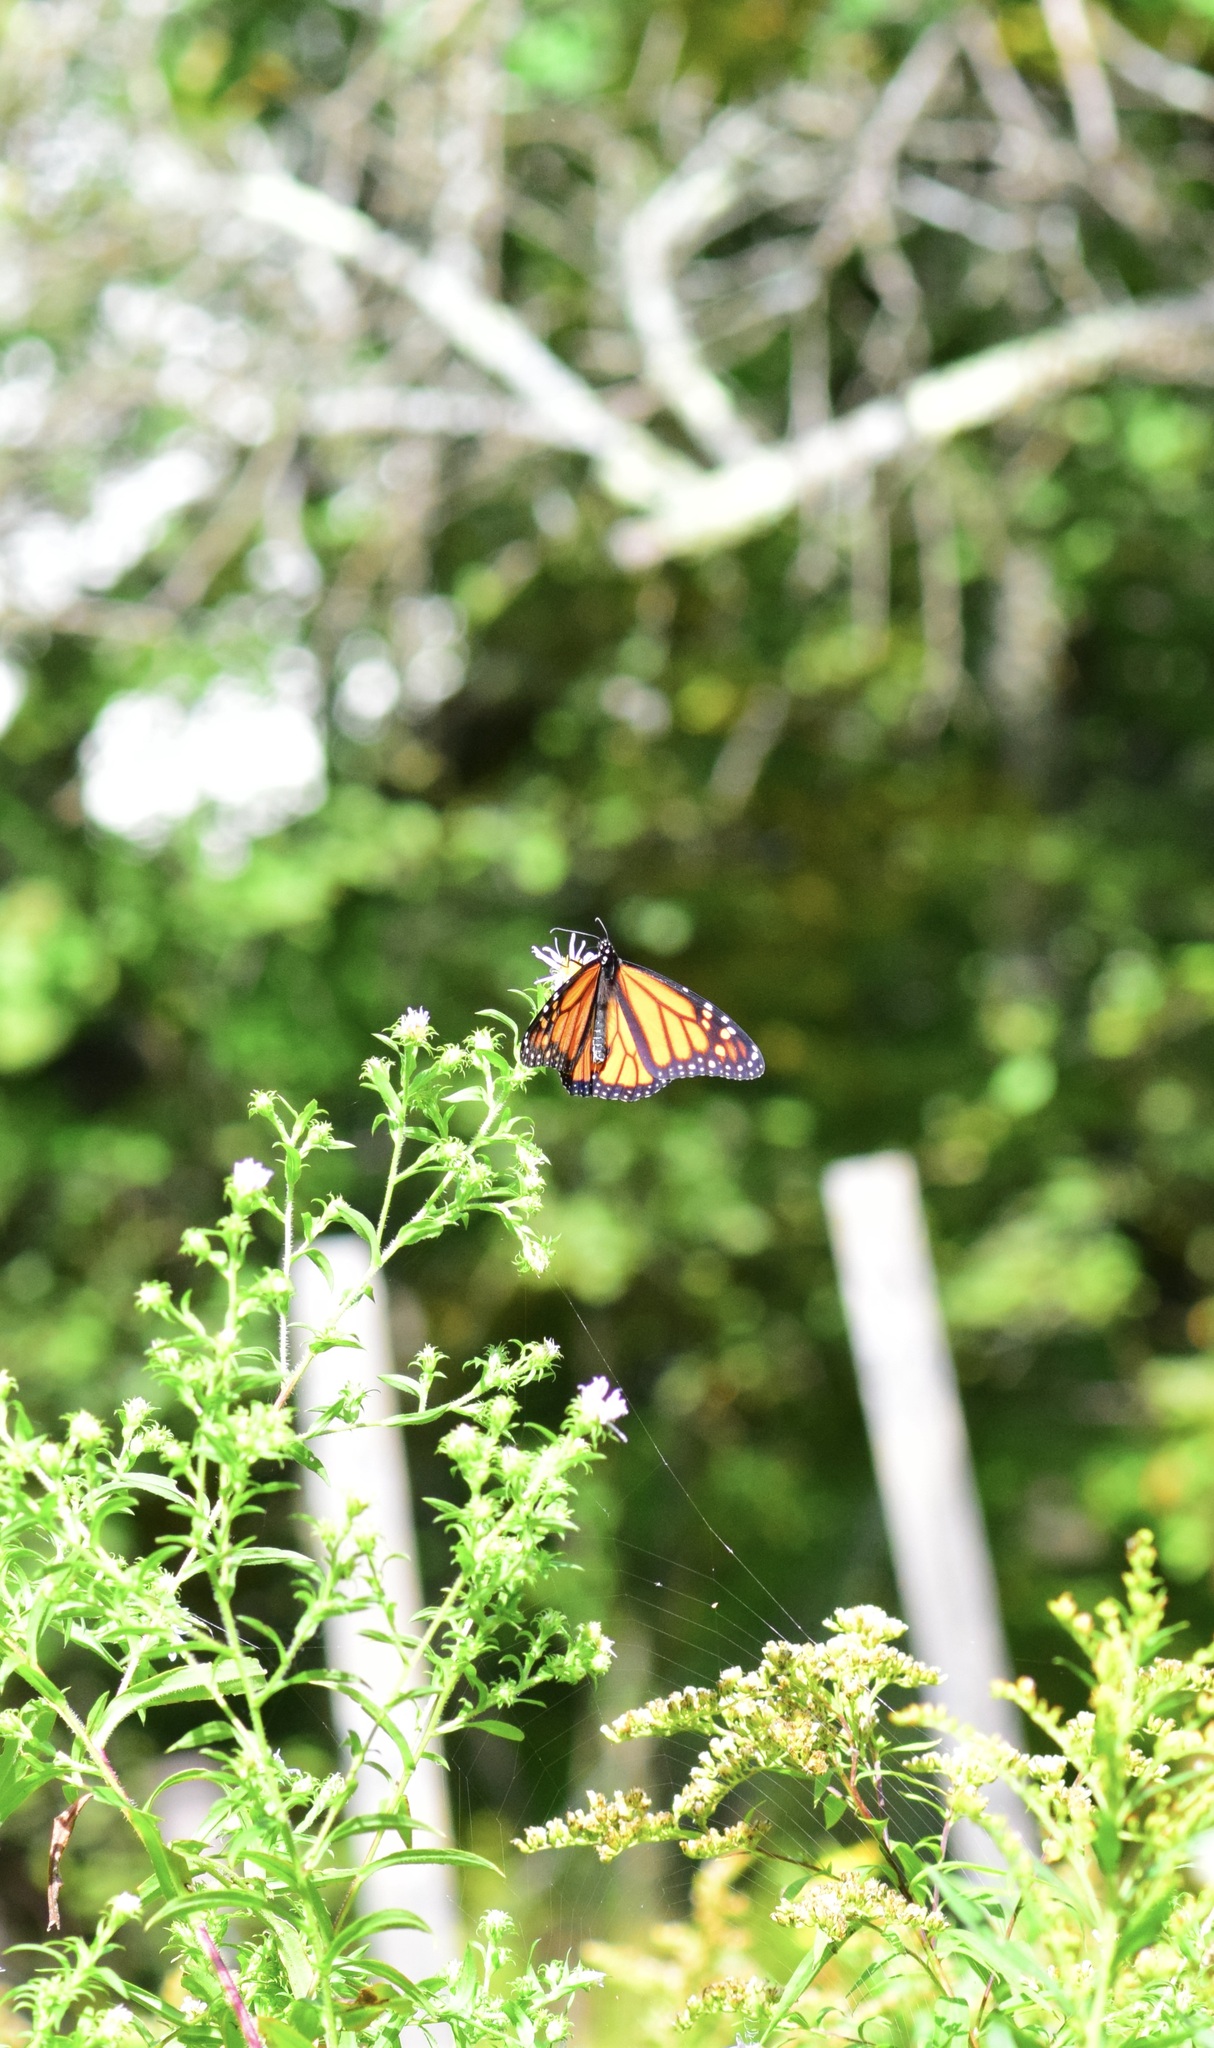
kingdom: Animalia
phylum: Arthropoda
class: Insecta
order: Lepidoptera
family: Nymphalidae
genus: Danaus
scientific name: Danaus plexippus
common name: Monarch
